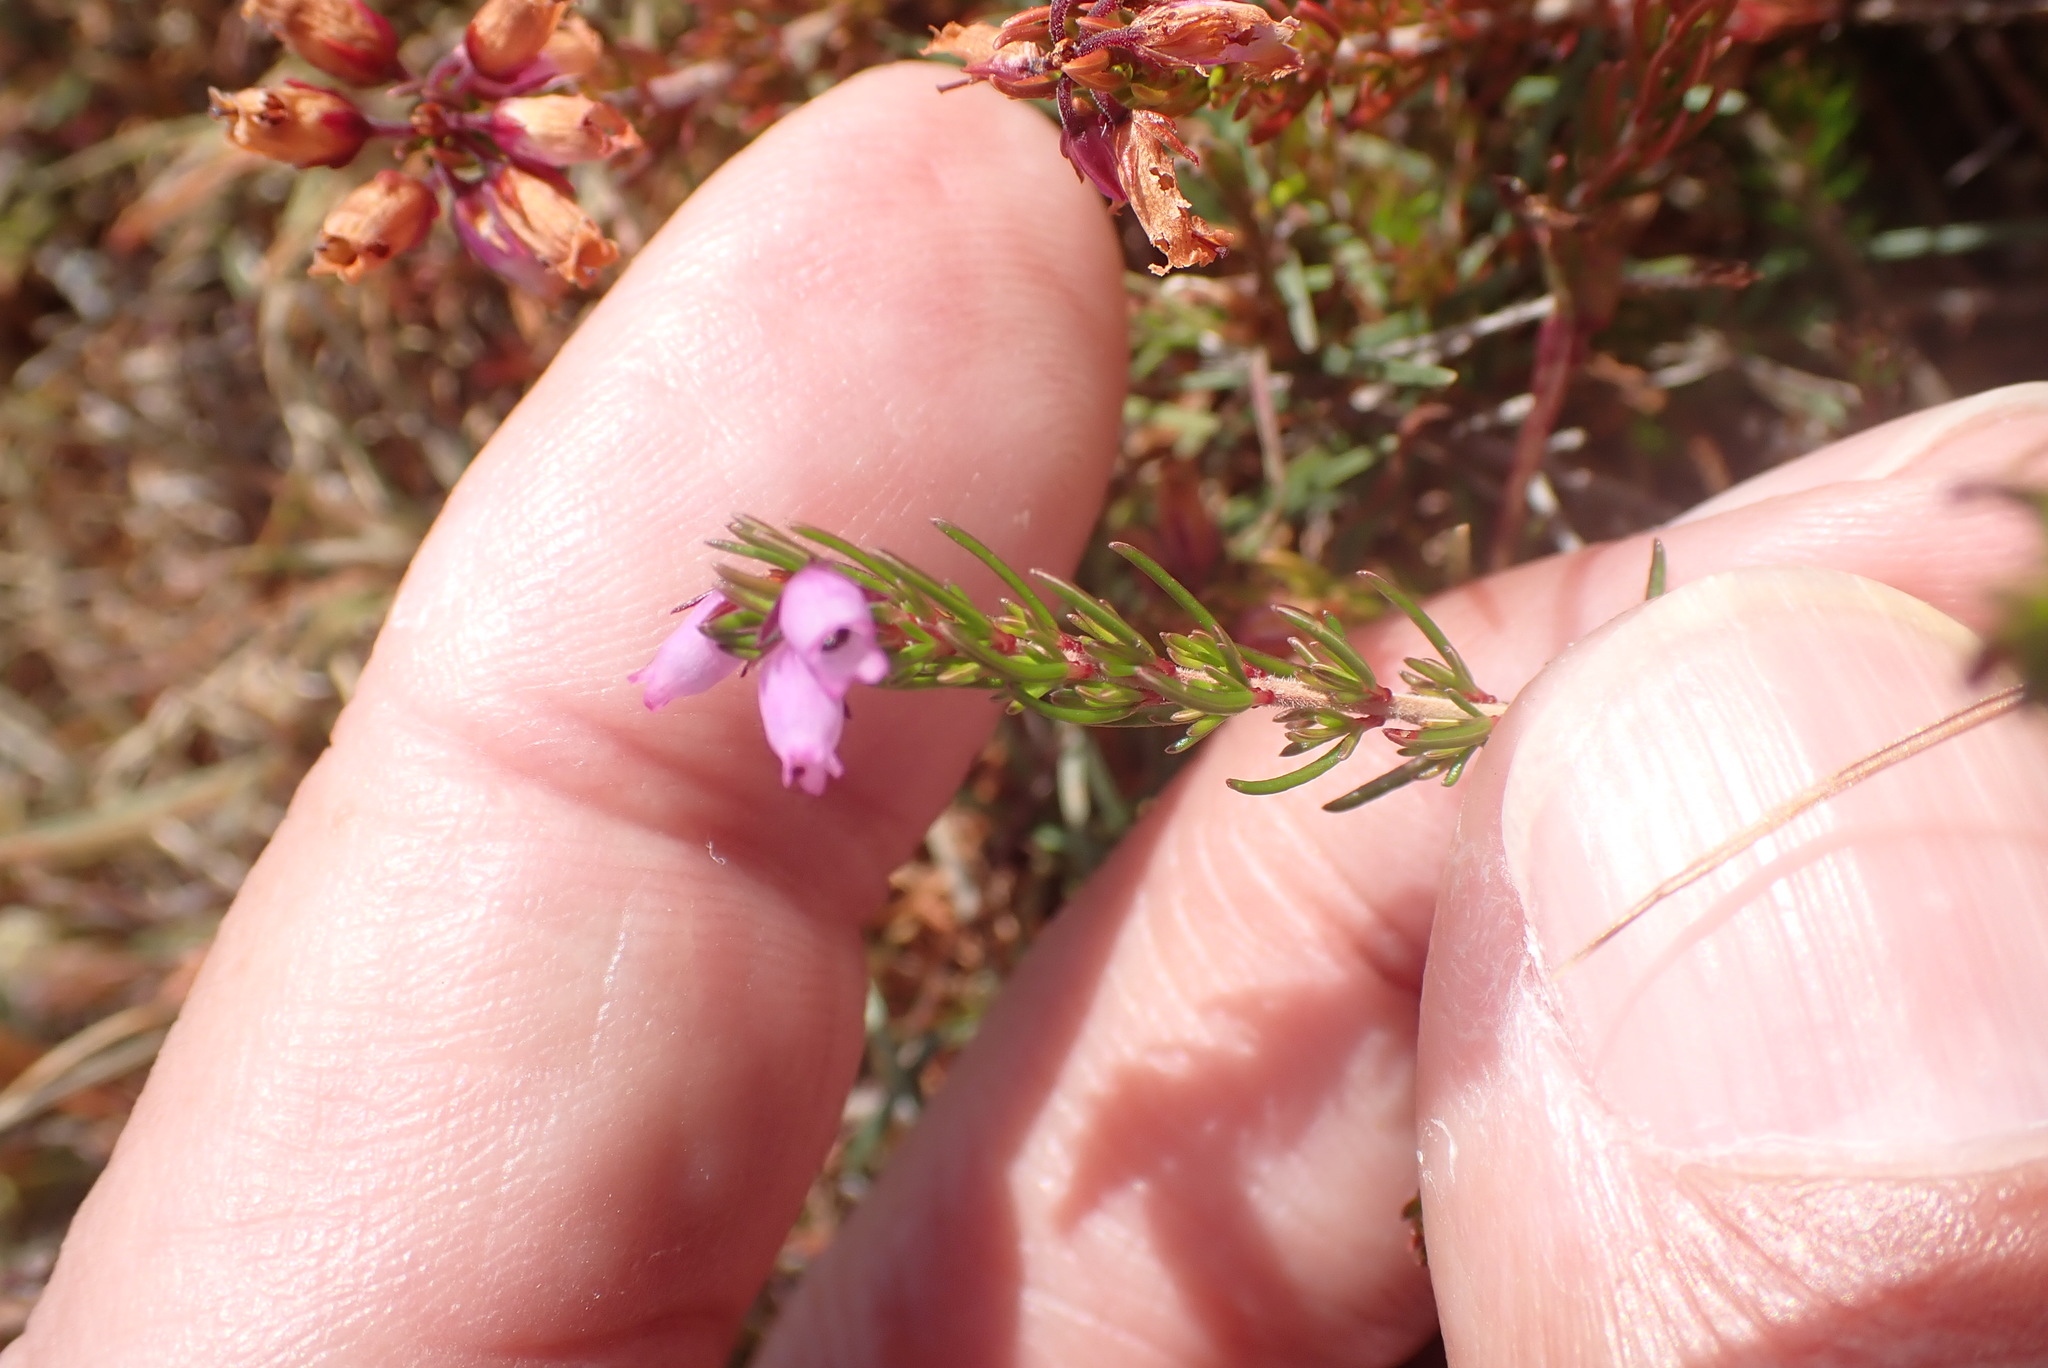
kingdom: Plantae
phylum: Tracheophyta
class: Magnoliopsida
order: Ericales
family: Ericaceae
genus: Erica
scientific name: Erica cinerea
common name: Bell heather
